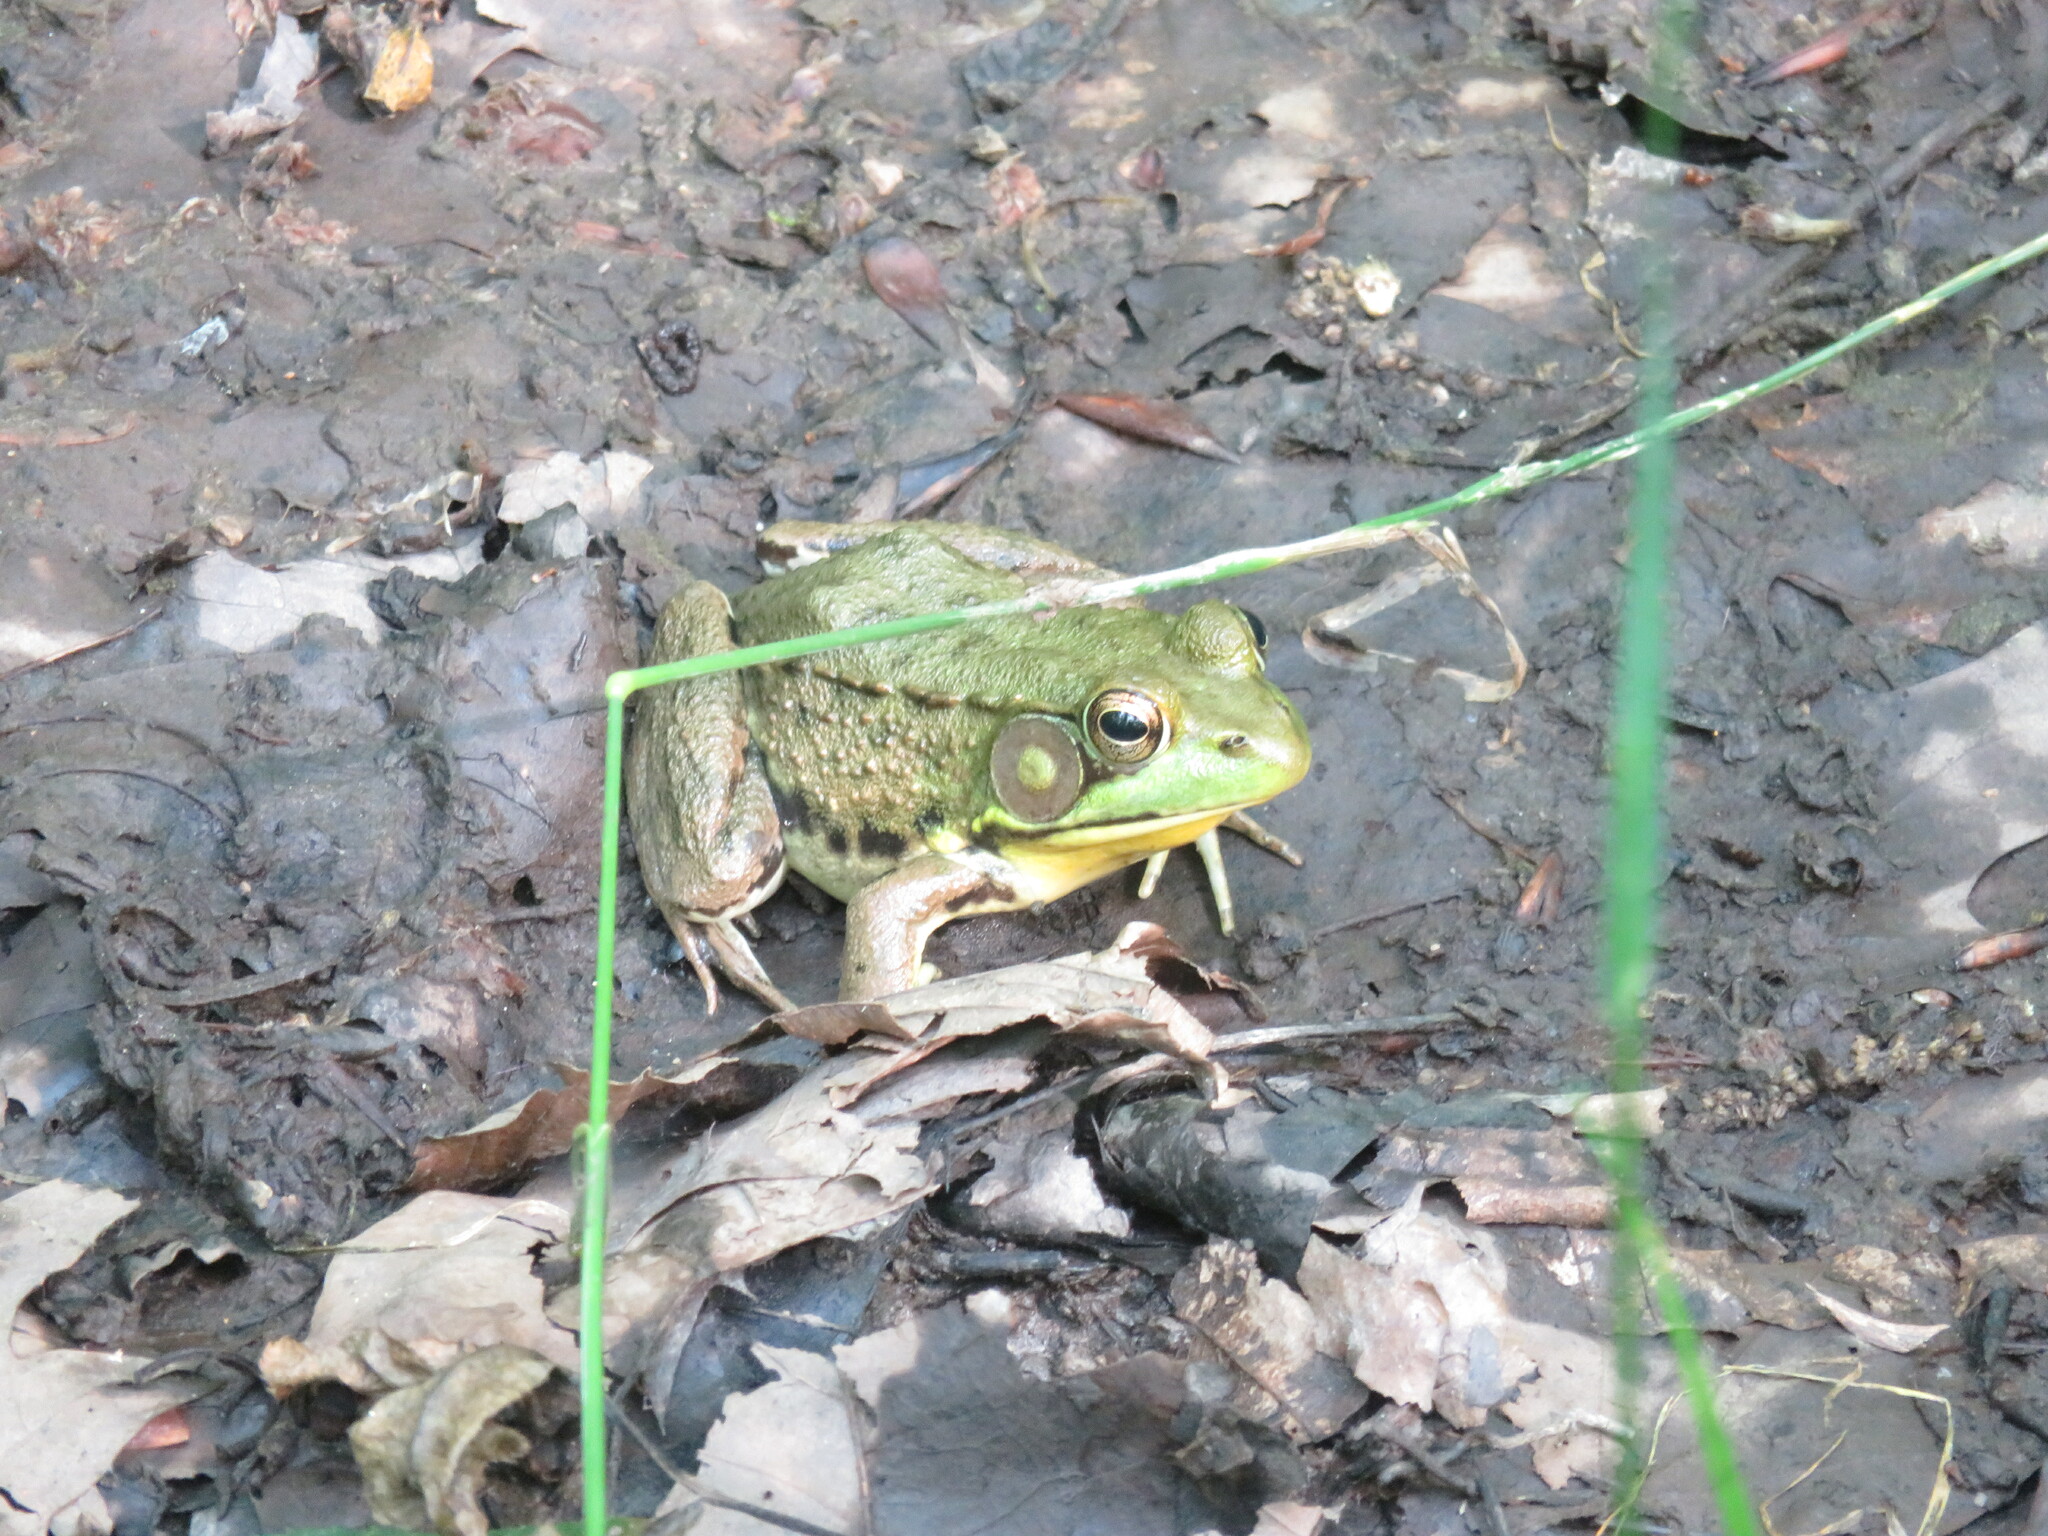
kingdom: Animalia
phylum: Chordata
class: Amphibia
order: Anura
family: Ranidae
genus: Lithobates
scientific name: Lithobates clamitans
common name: Green frog
